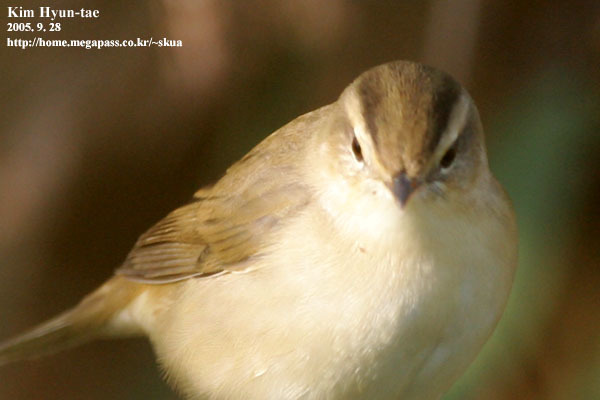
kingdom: Animalia
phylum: Chordata
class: Aves
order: Passeriformes
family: Acrocephalidae
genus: Acrocephalus
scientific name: Acrocephalus bistrigiceps
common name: Black-browed reed warbler
